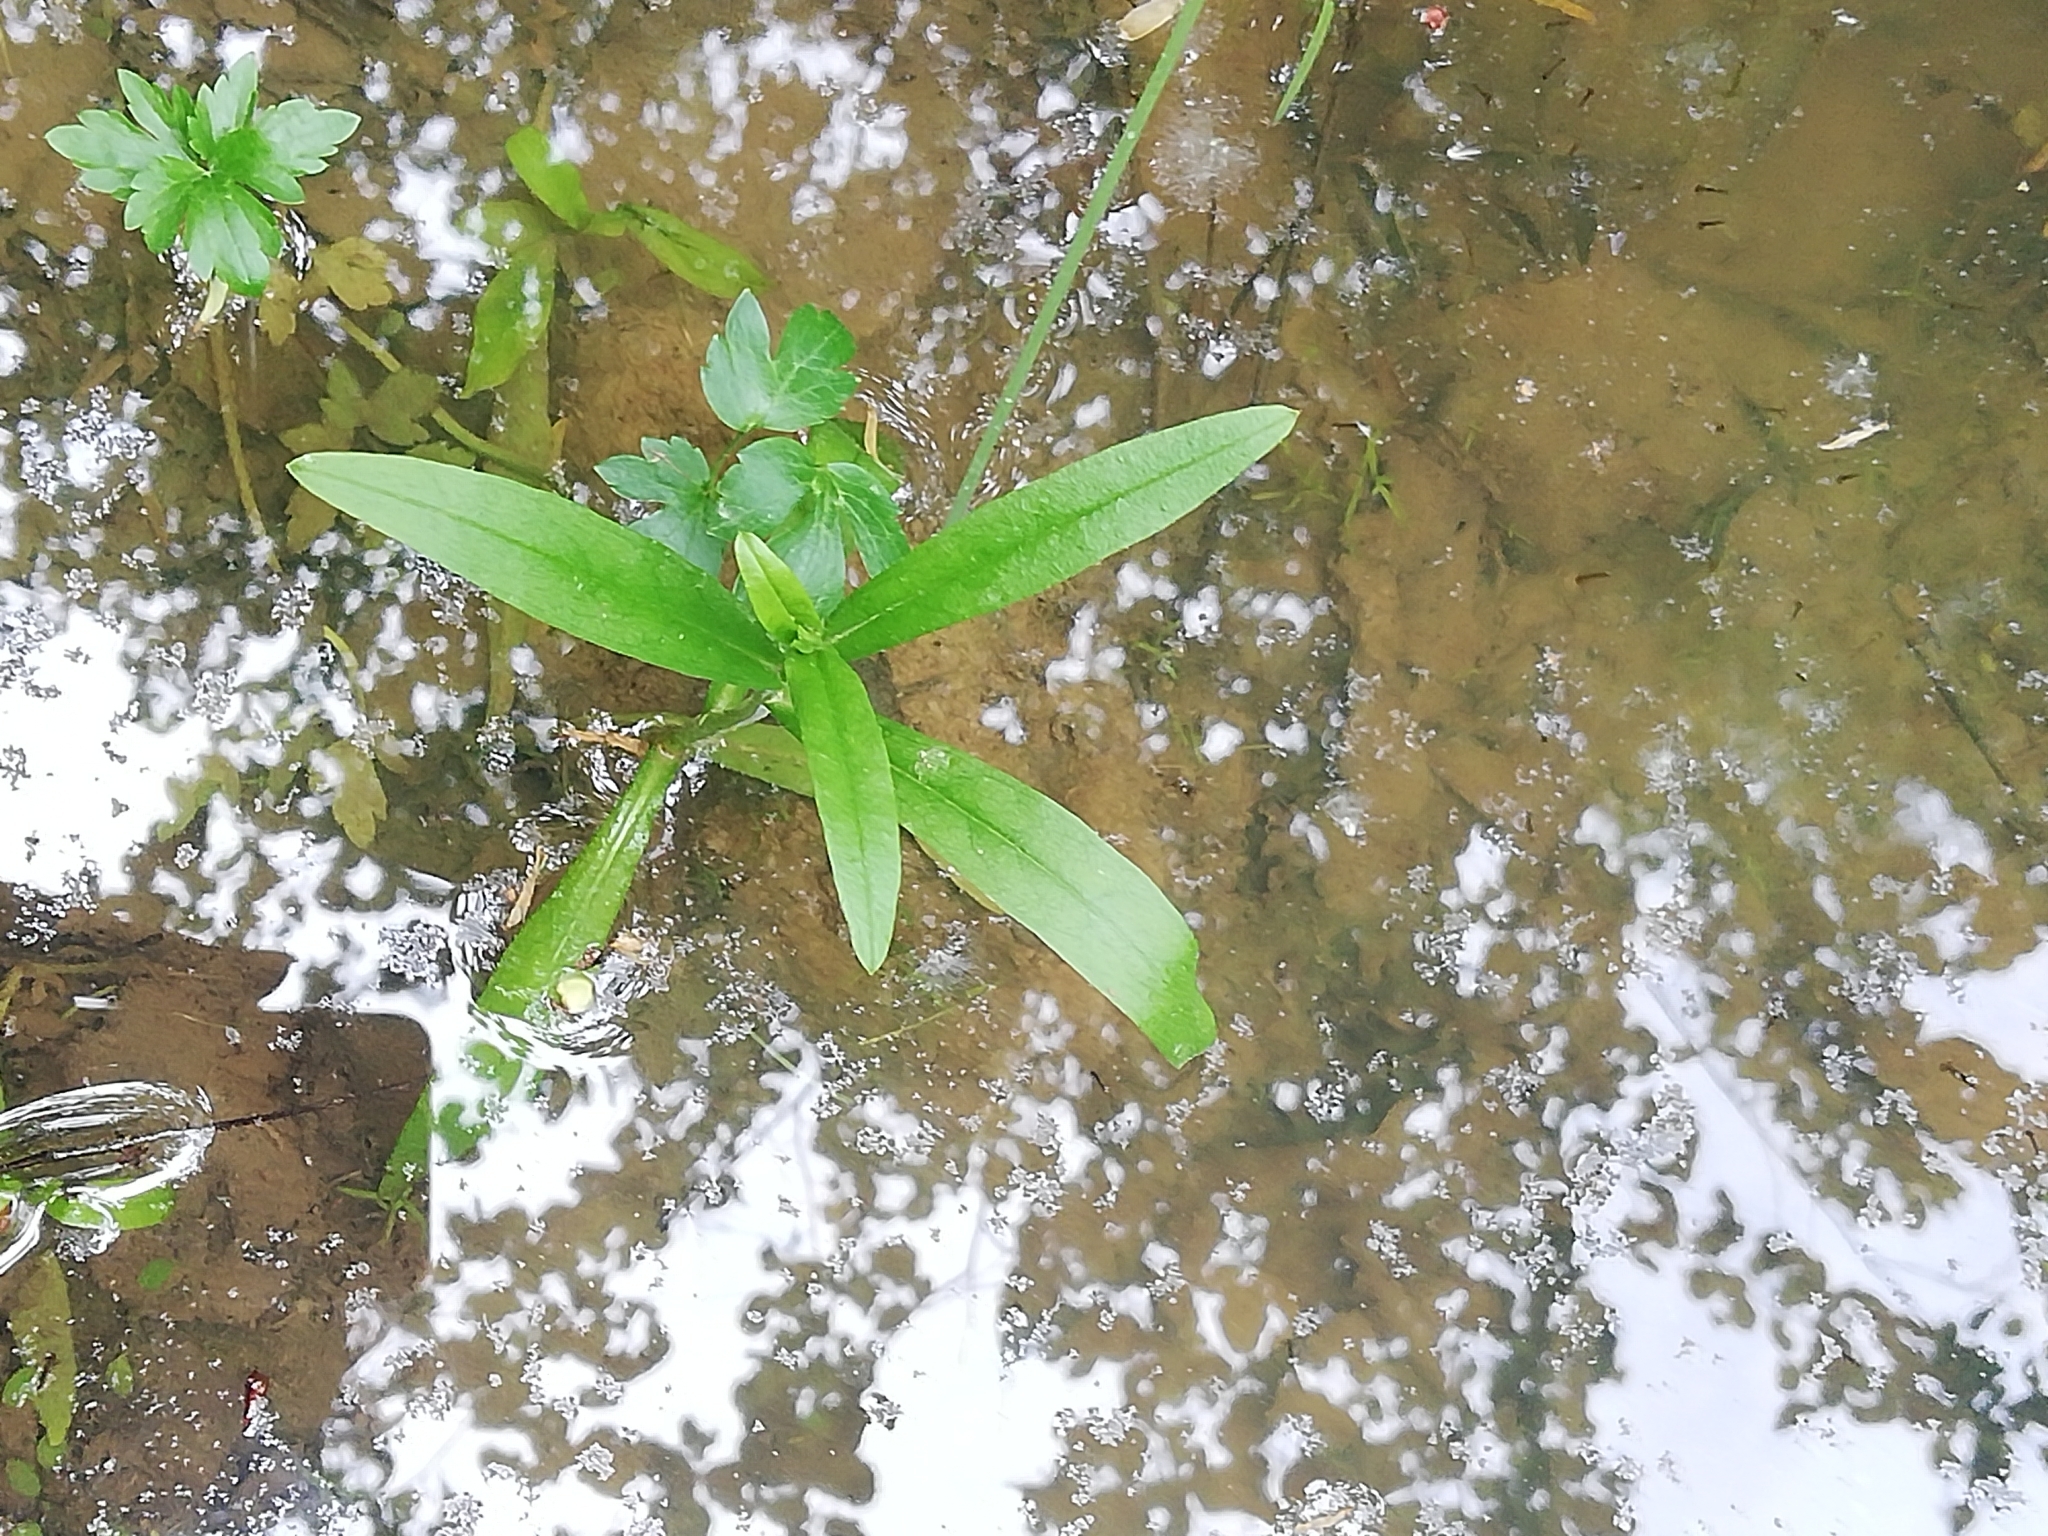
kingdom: Plantae
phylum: Tracheophyta
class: Magnoliopsida
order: Boraginales
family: Boraginaceae
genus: Myosotis
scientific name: Myosotis scorpioides
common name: Water forget-me-not
